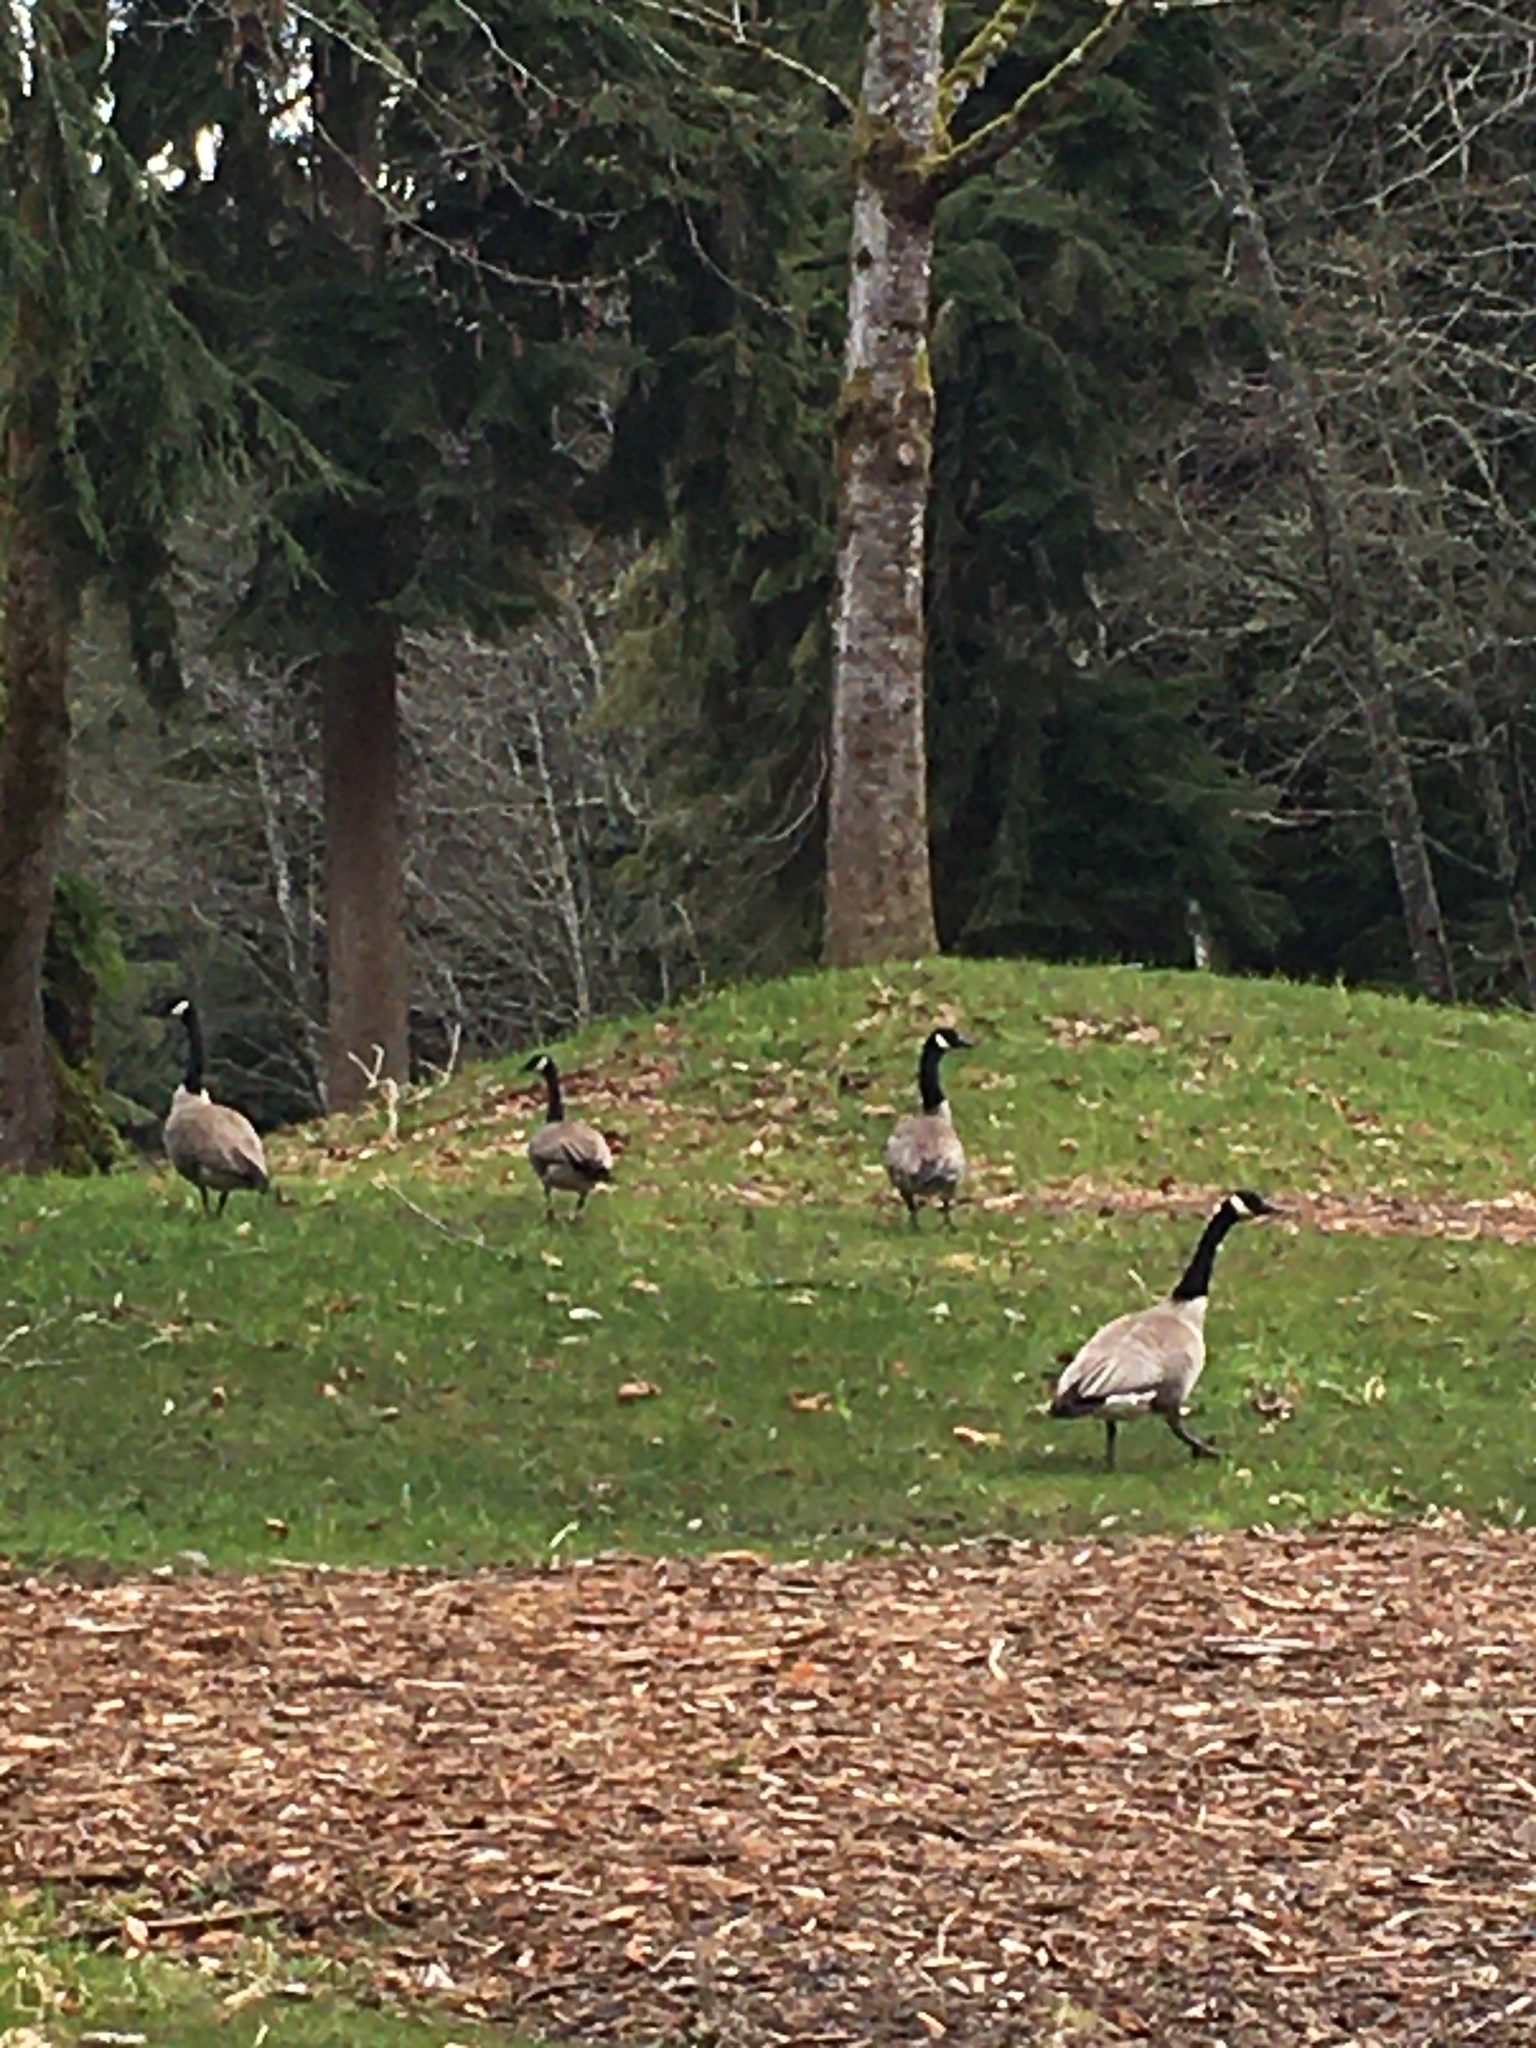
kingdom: Animalia
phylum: Chordata
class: Aves
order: Anseriformes
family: Anatidae
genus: Branta
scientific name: Branta canadensis
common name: Canada goose
